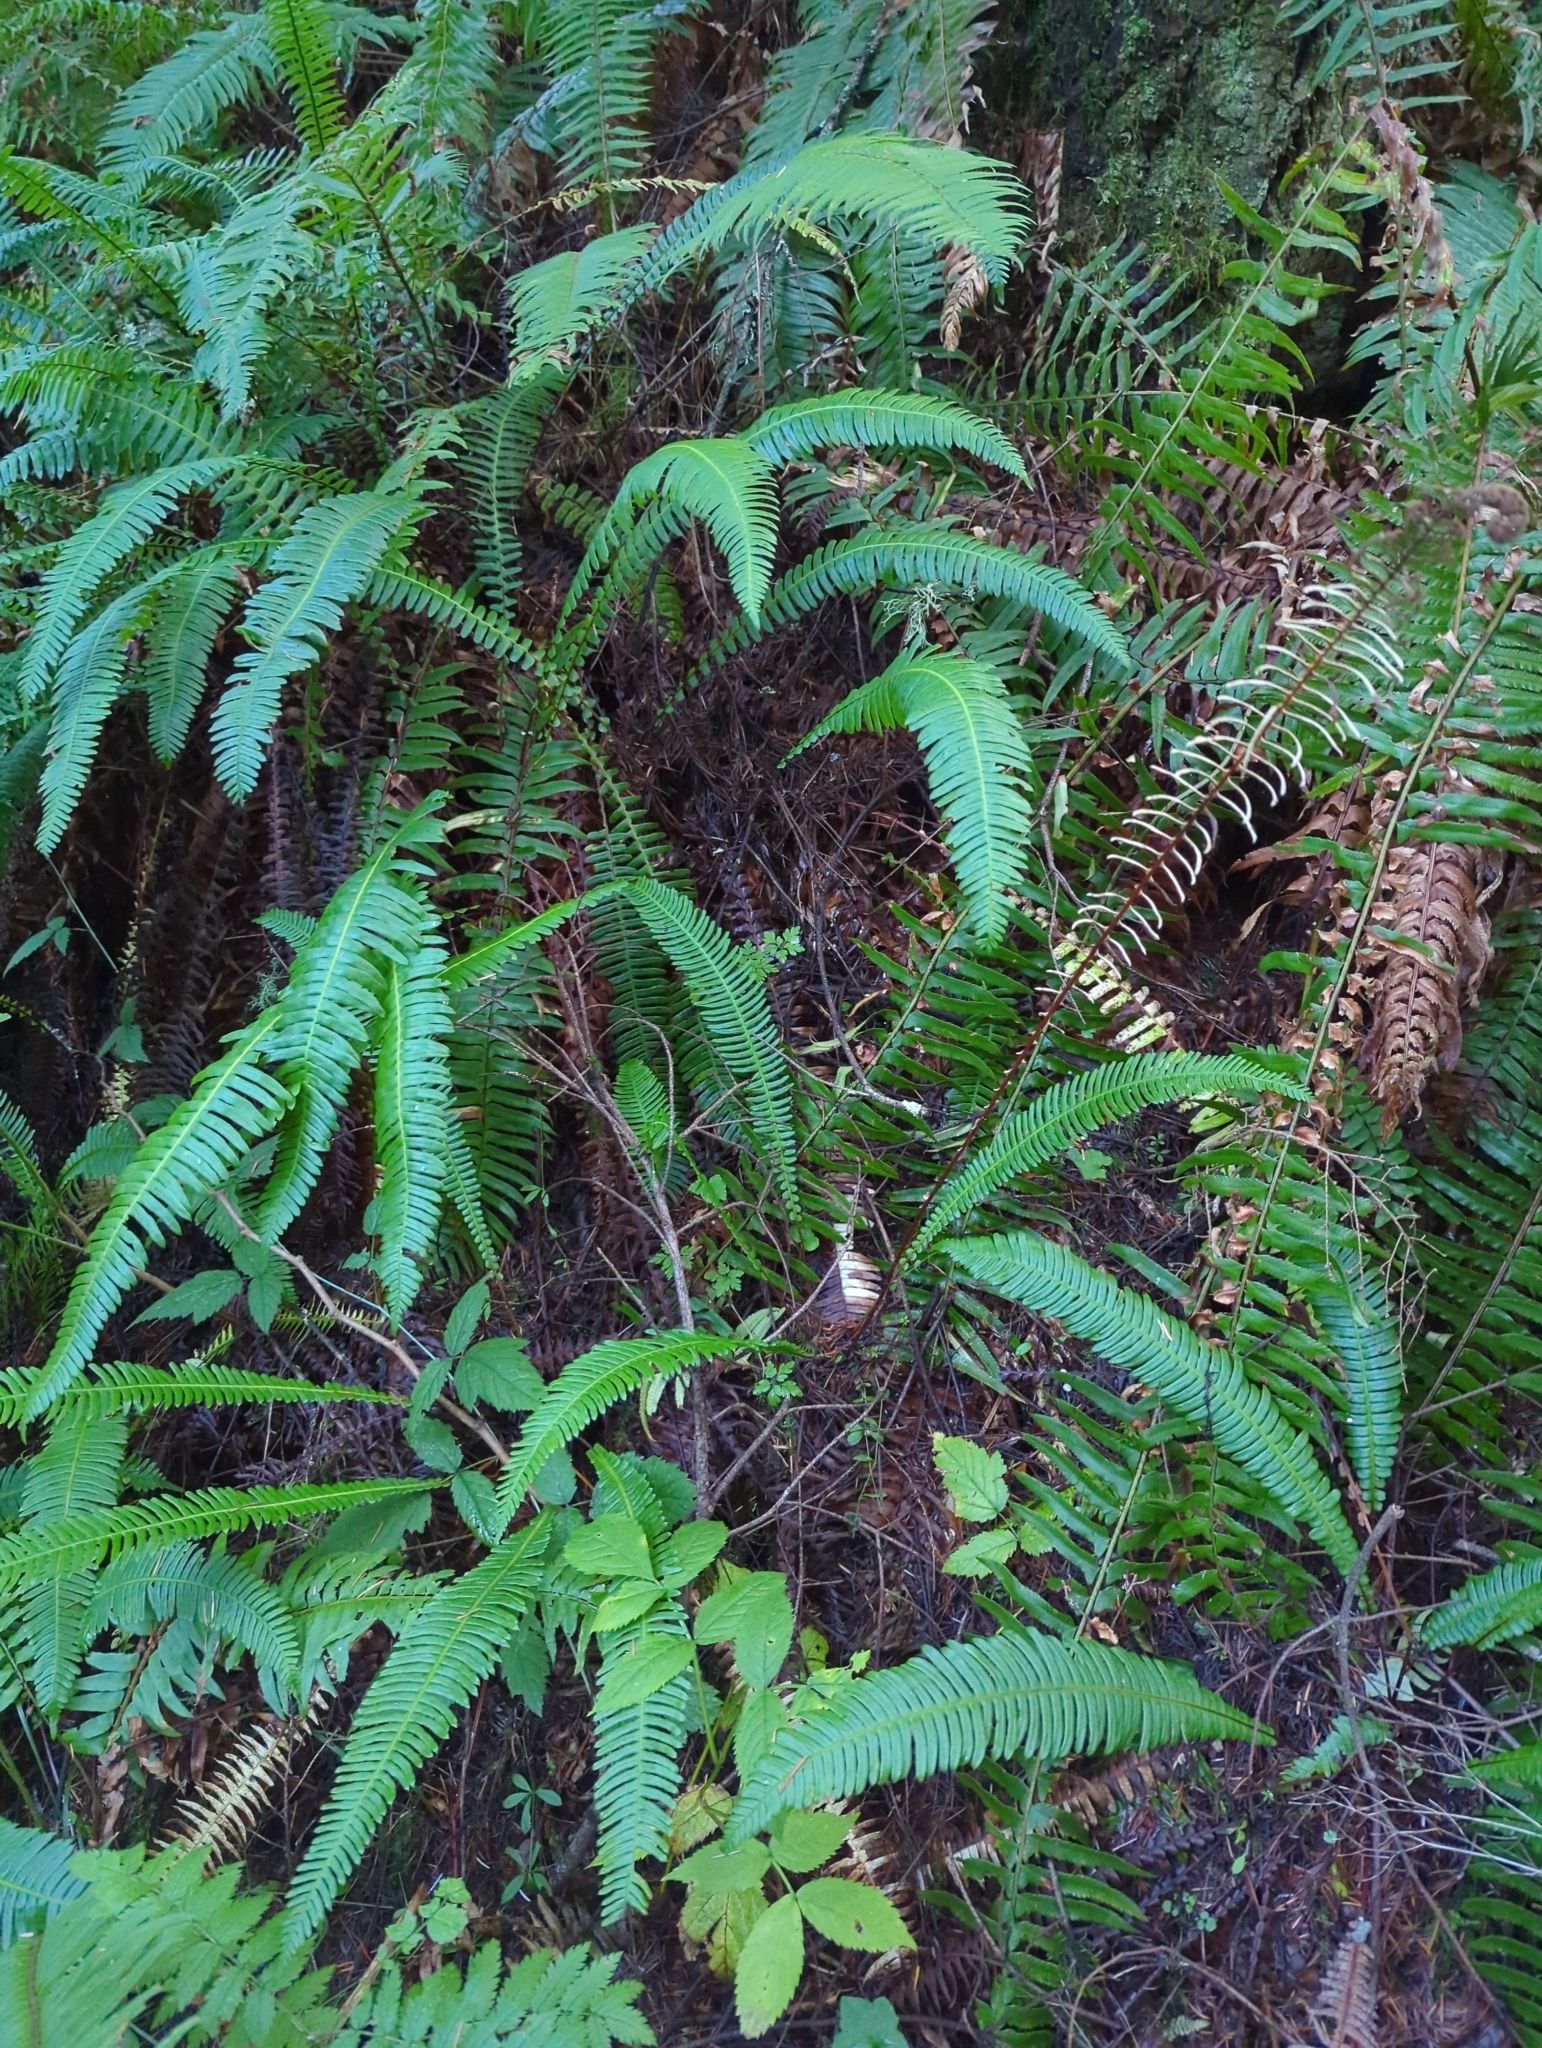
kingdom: Plantae
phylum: Tracheophyta
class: Polypodiopsida
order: Polypodiales
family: Blechnaceae
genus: Struthiopteris
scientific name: Struthiopteris spicant
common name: Deer fern
